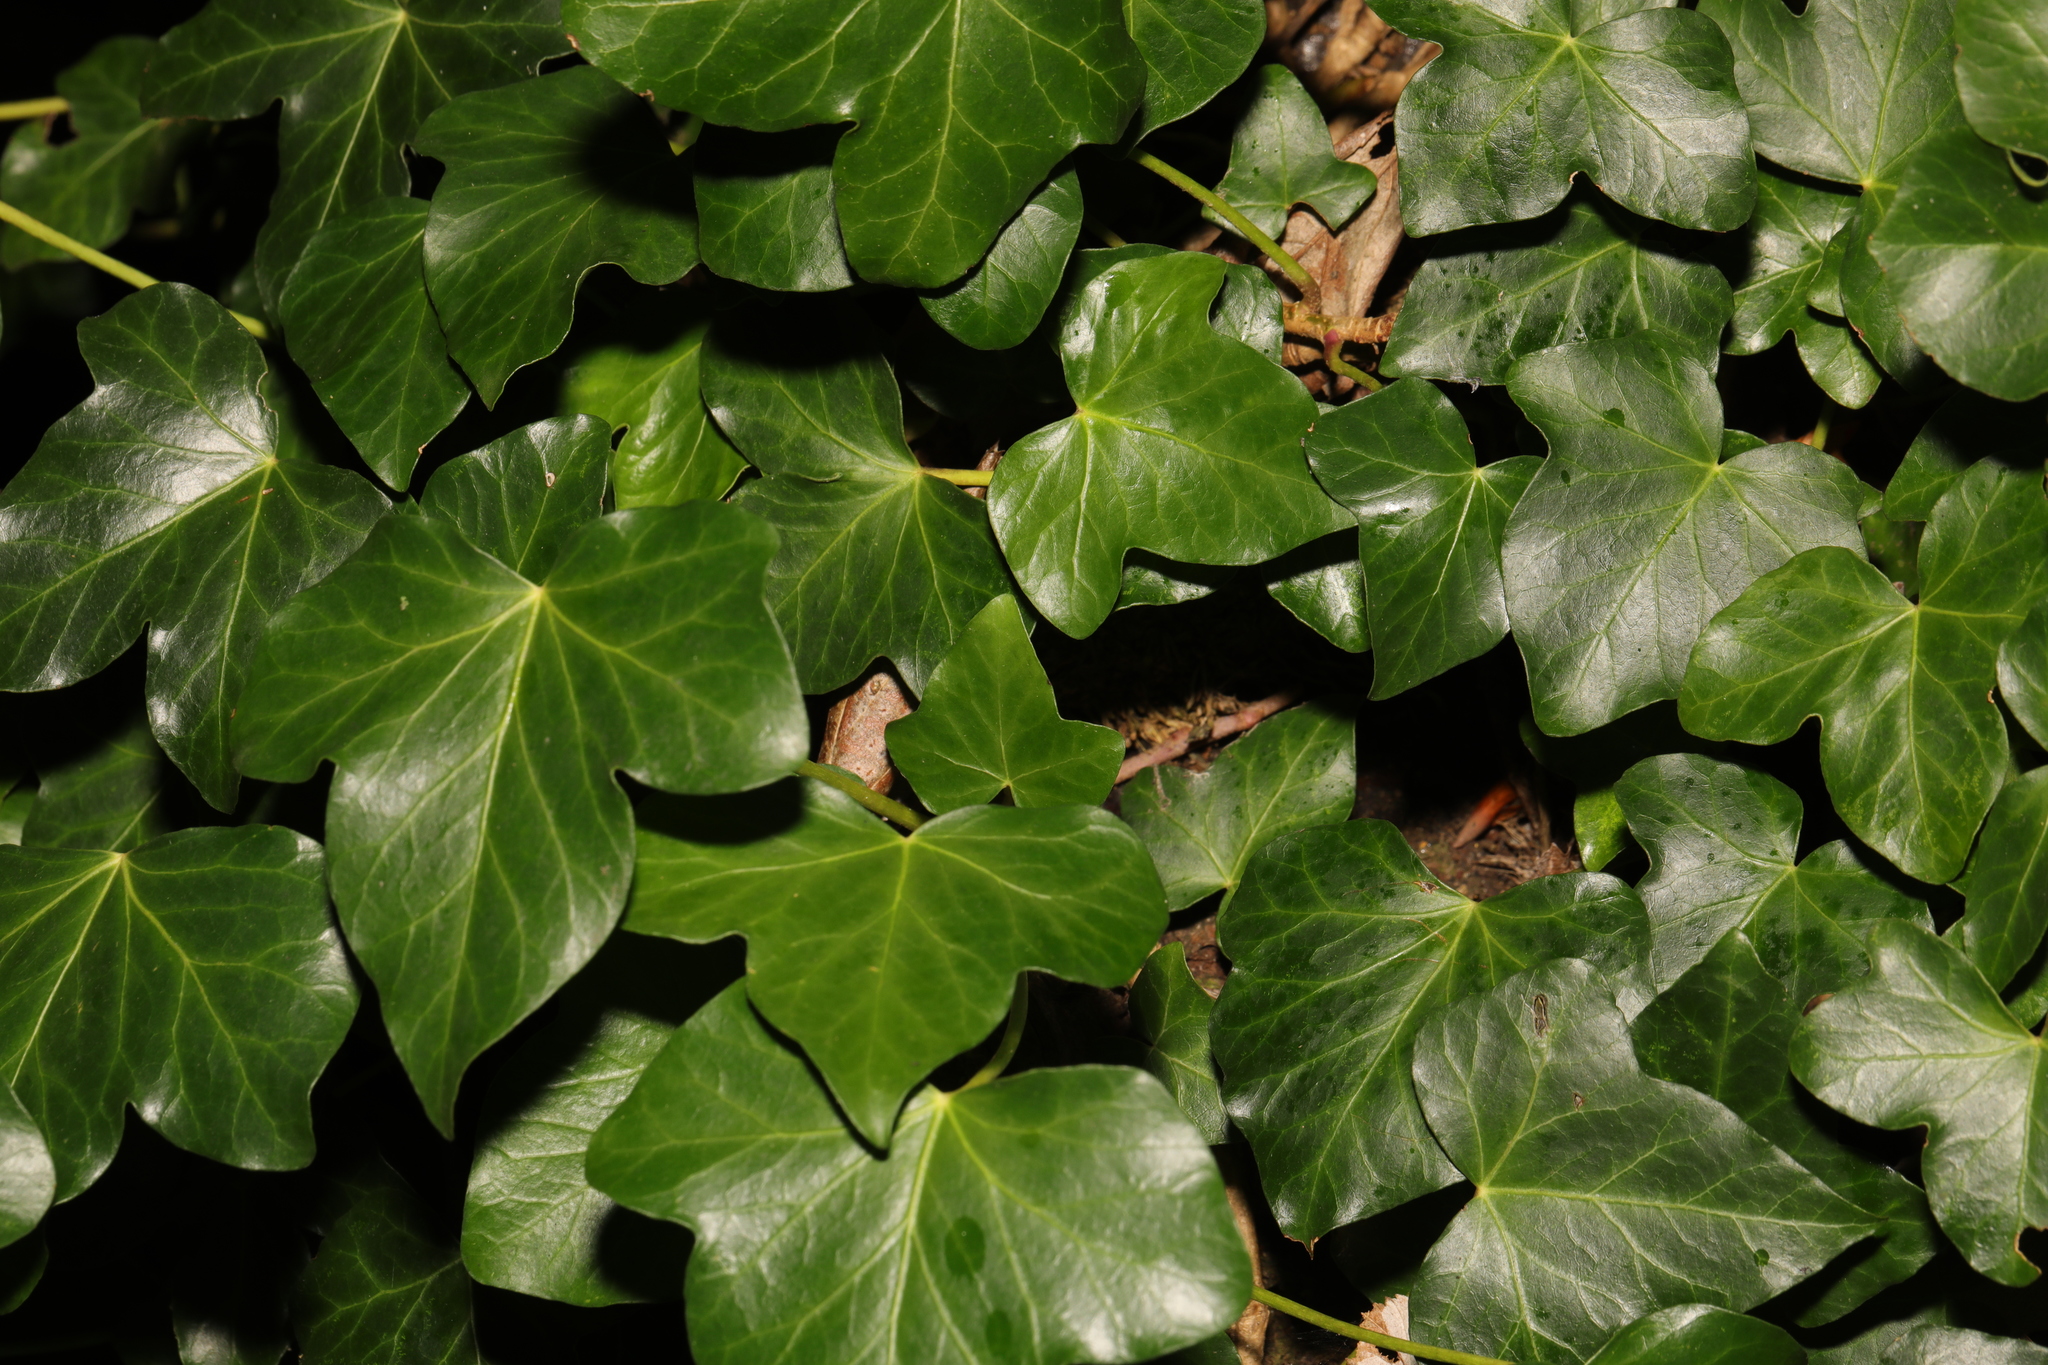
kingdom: Plantae
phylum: Tracheophyta
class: Magnoliopsida
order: Apiales
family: Araliaceae
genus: Hedera
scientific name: Hedera helix
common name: Ivy
